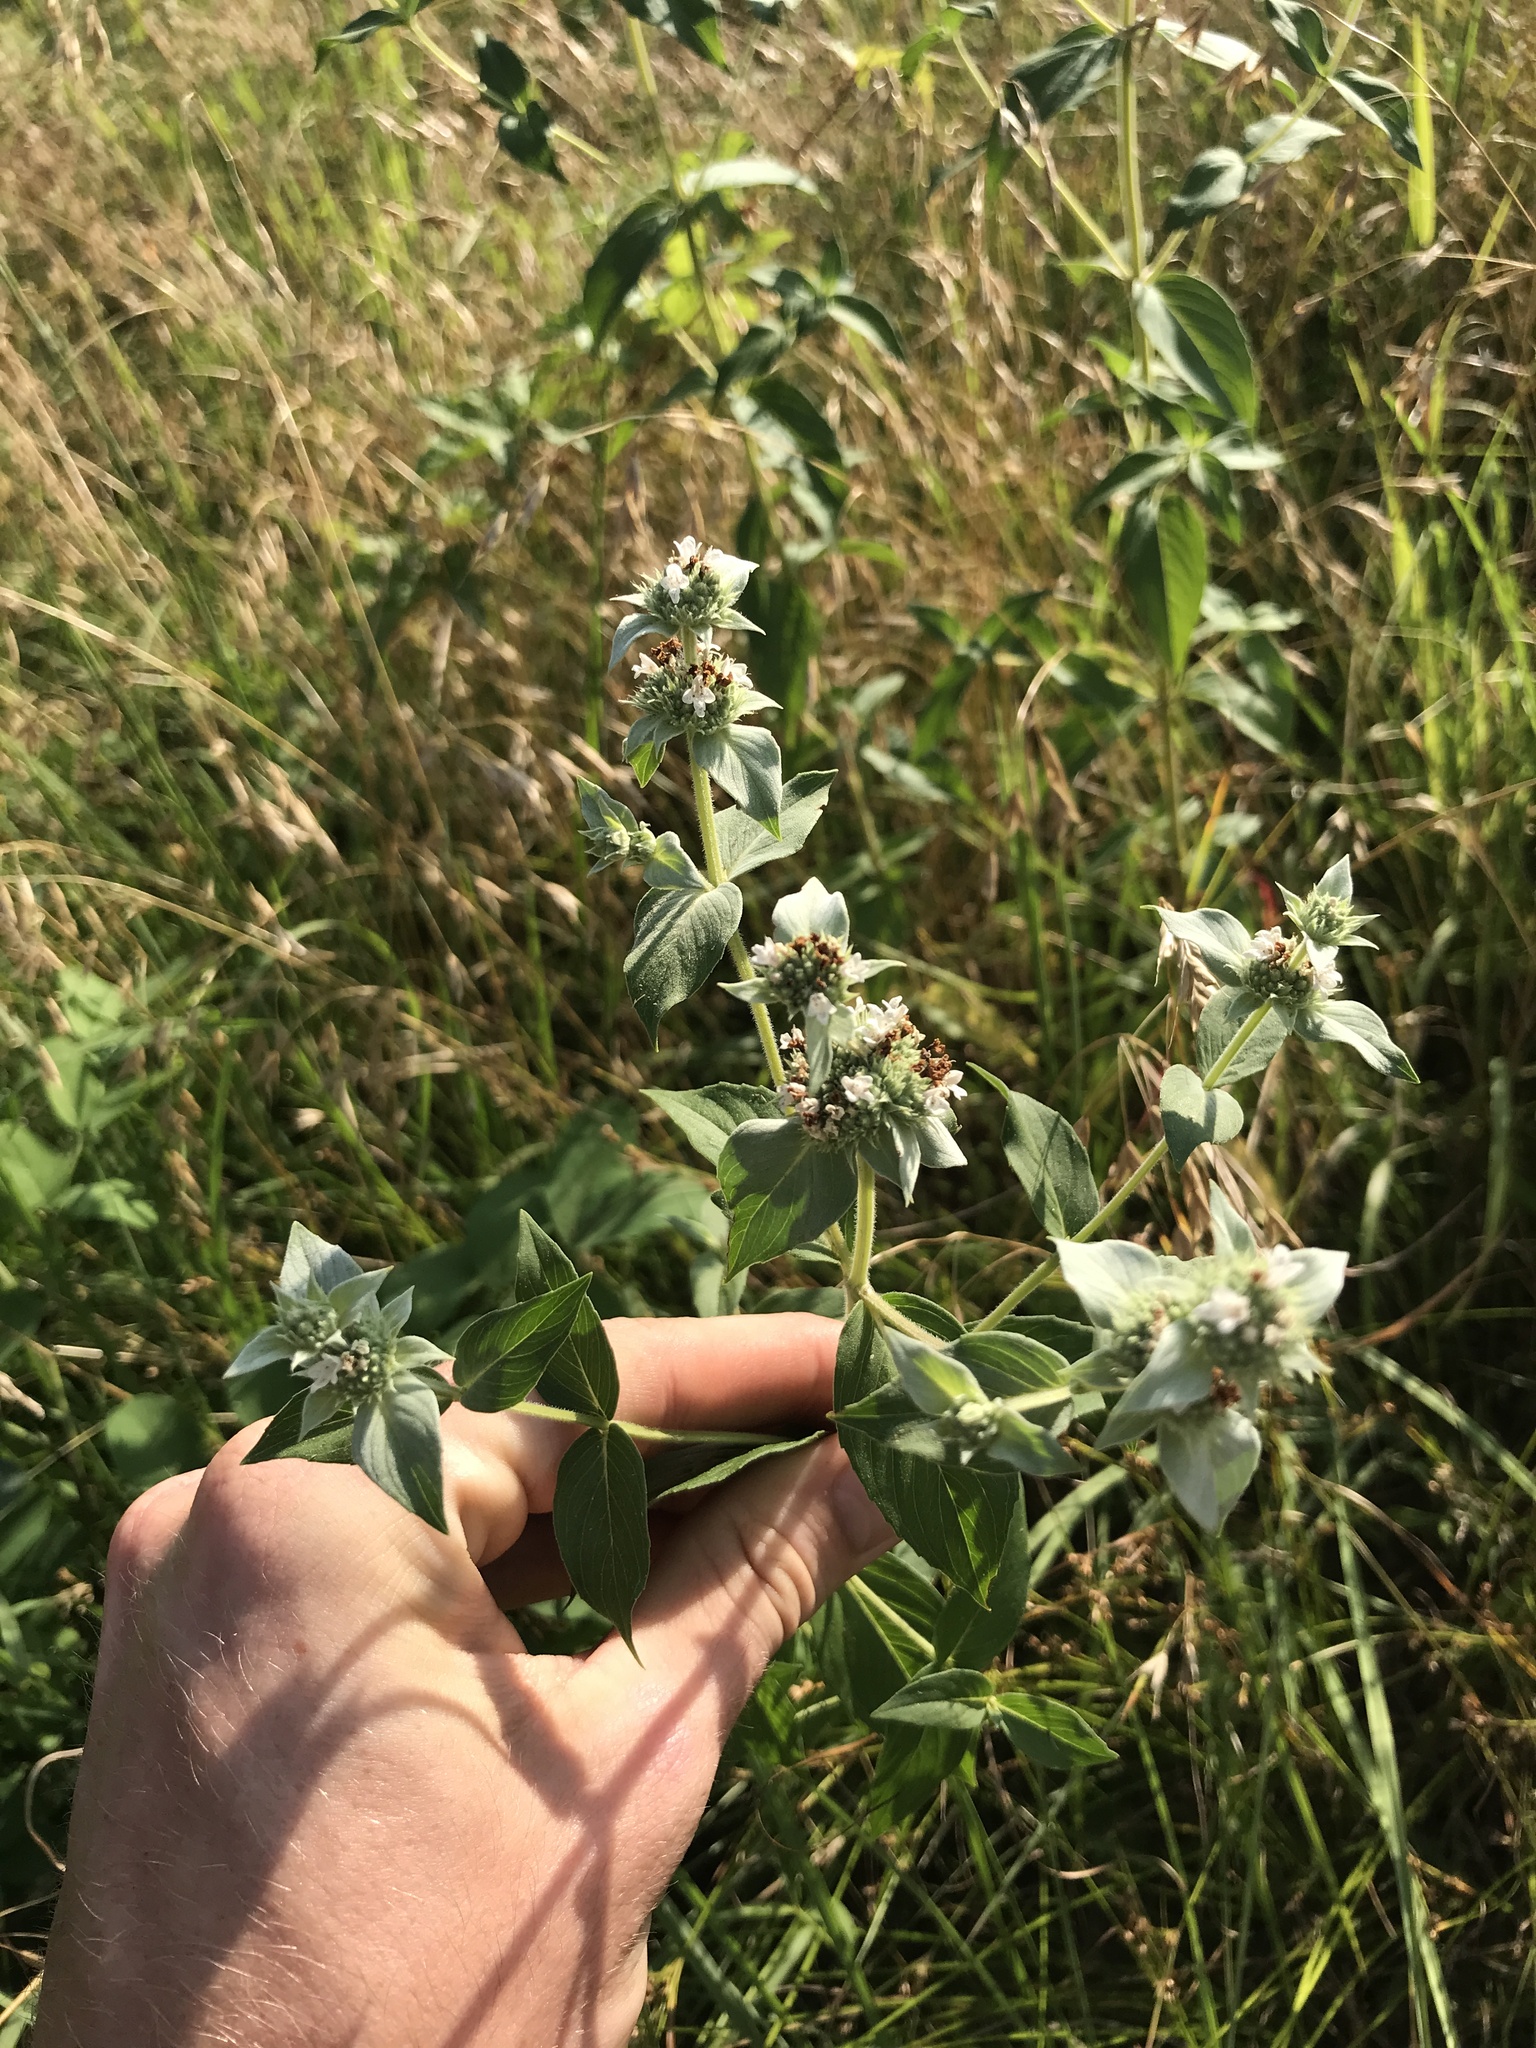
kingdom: Plantae
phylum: Tracheophyta
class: Magnoliopsida
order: Lamiales
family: Lamiaceae
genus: Pycnanthemum
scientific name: Pycnanthemum muticum
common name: Blunt mountain-mint
